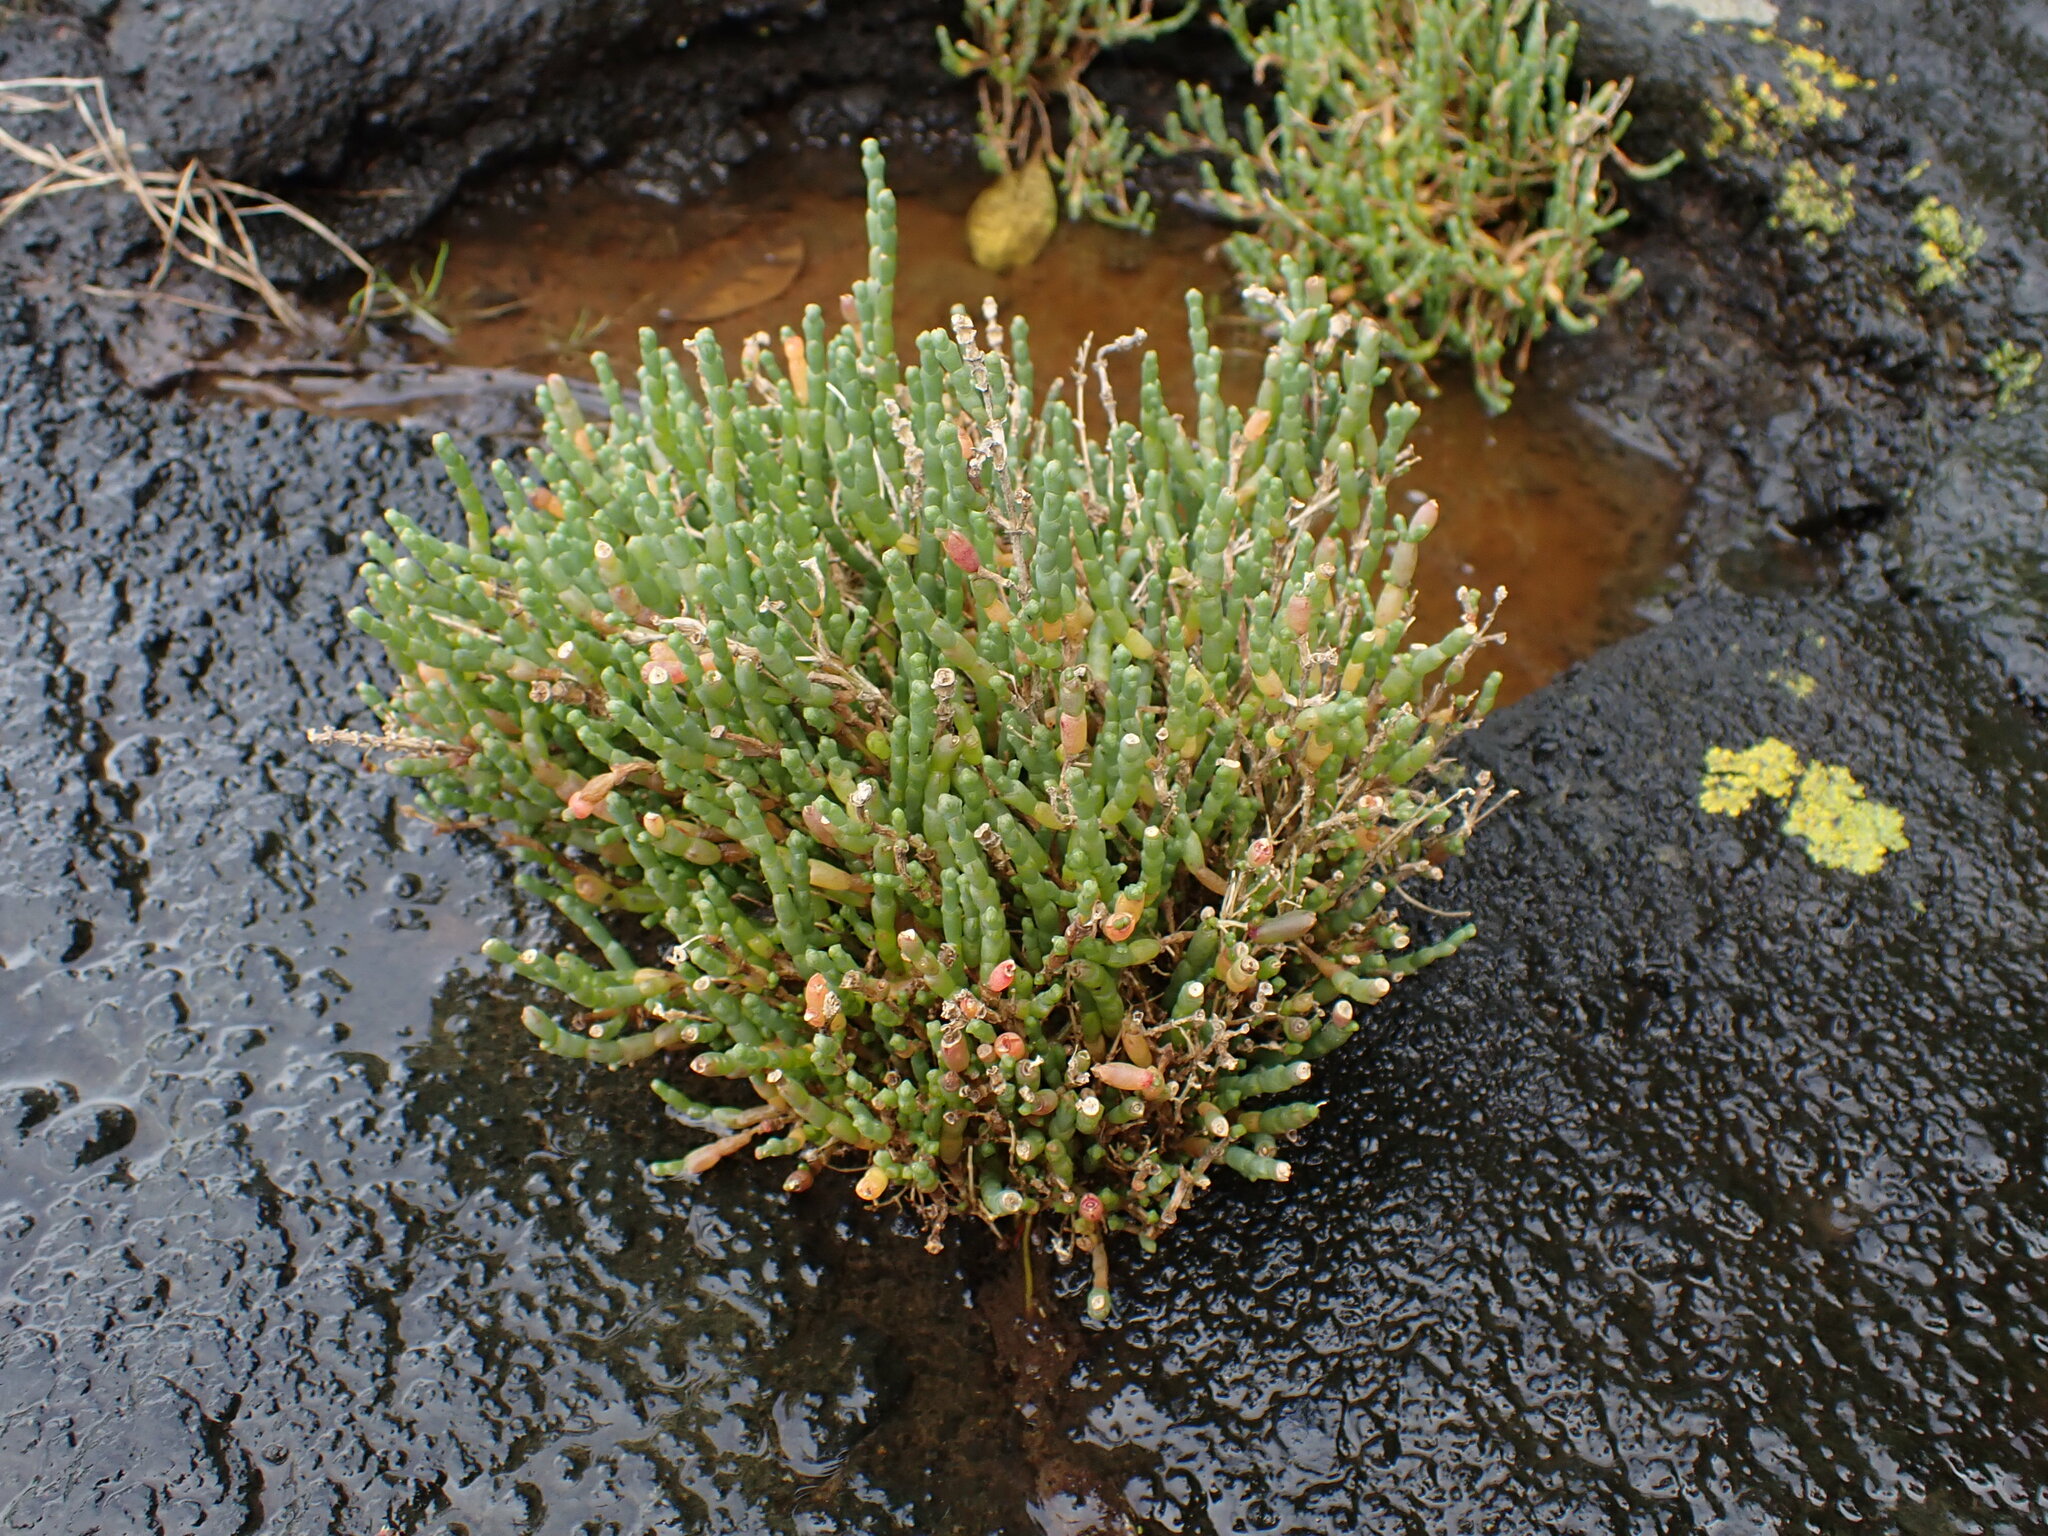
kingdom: Plantae
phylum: Tracheophyta
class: Magnoliopsida
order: Caryophyllales
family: Amaranthaceae
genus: Salicornia
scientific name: Salicornia quinqueflora
